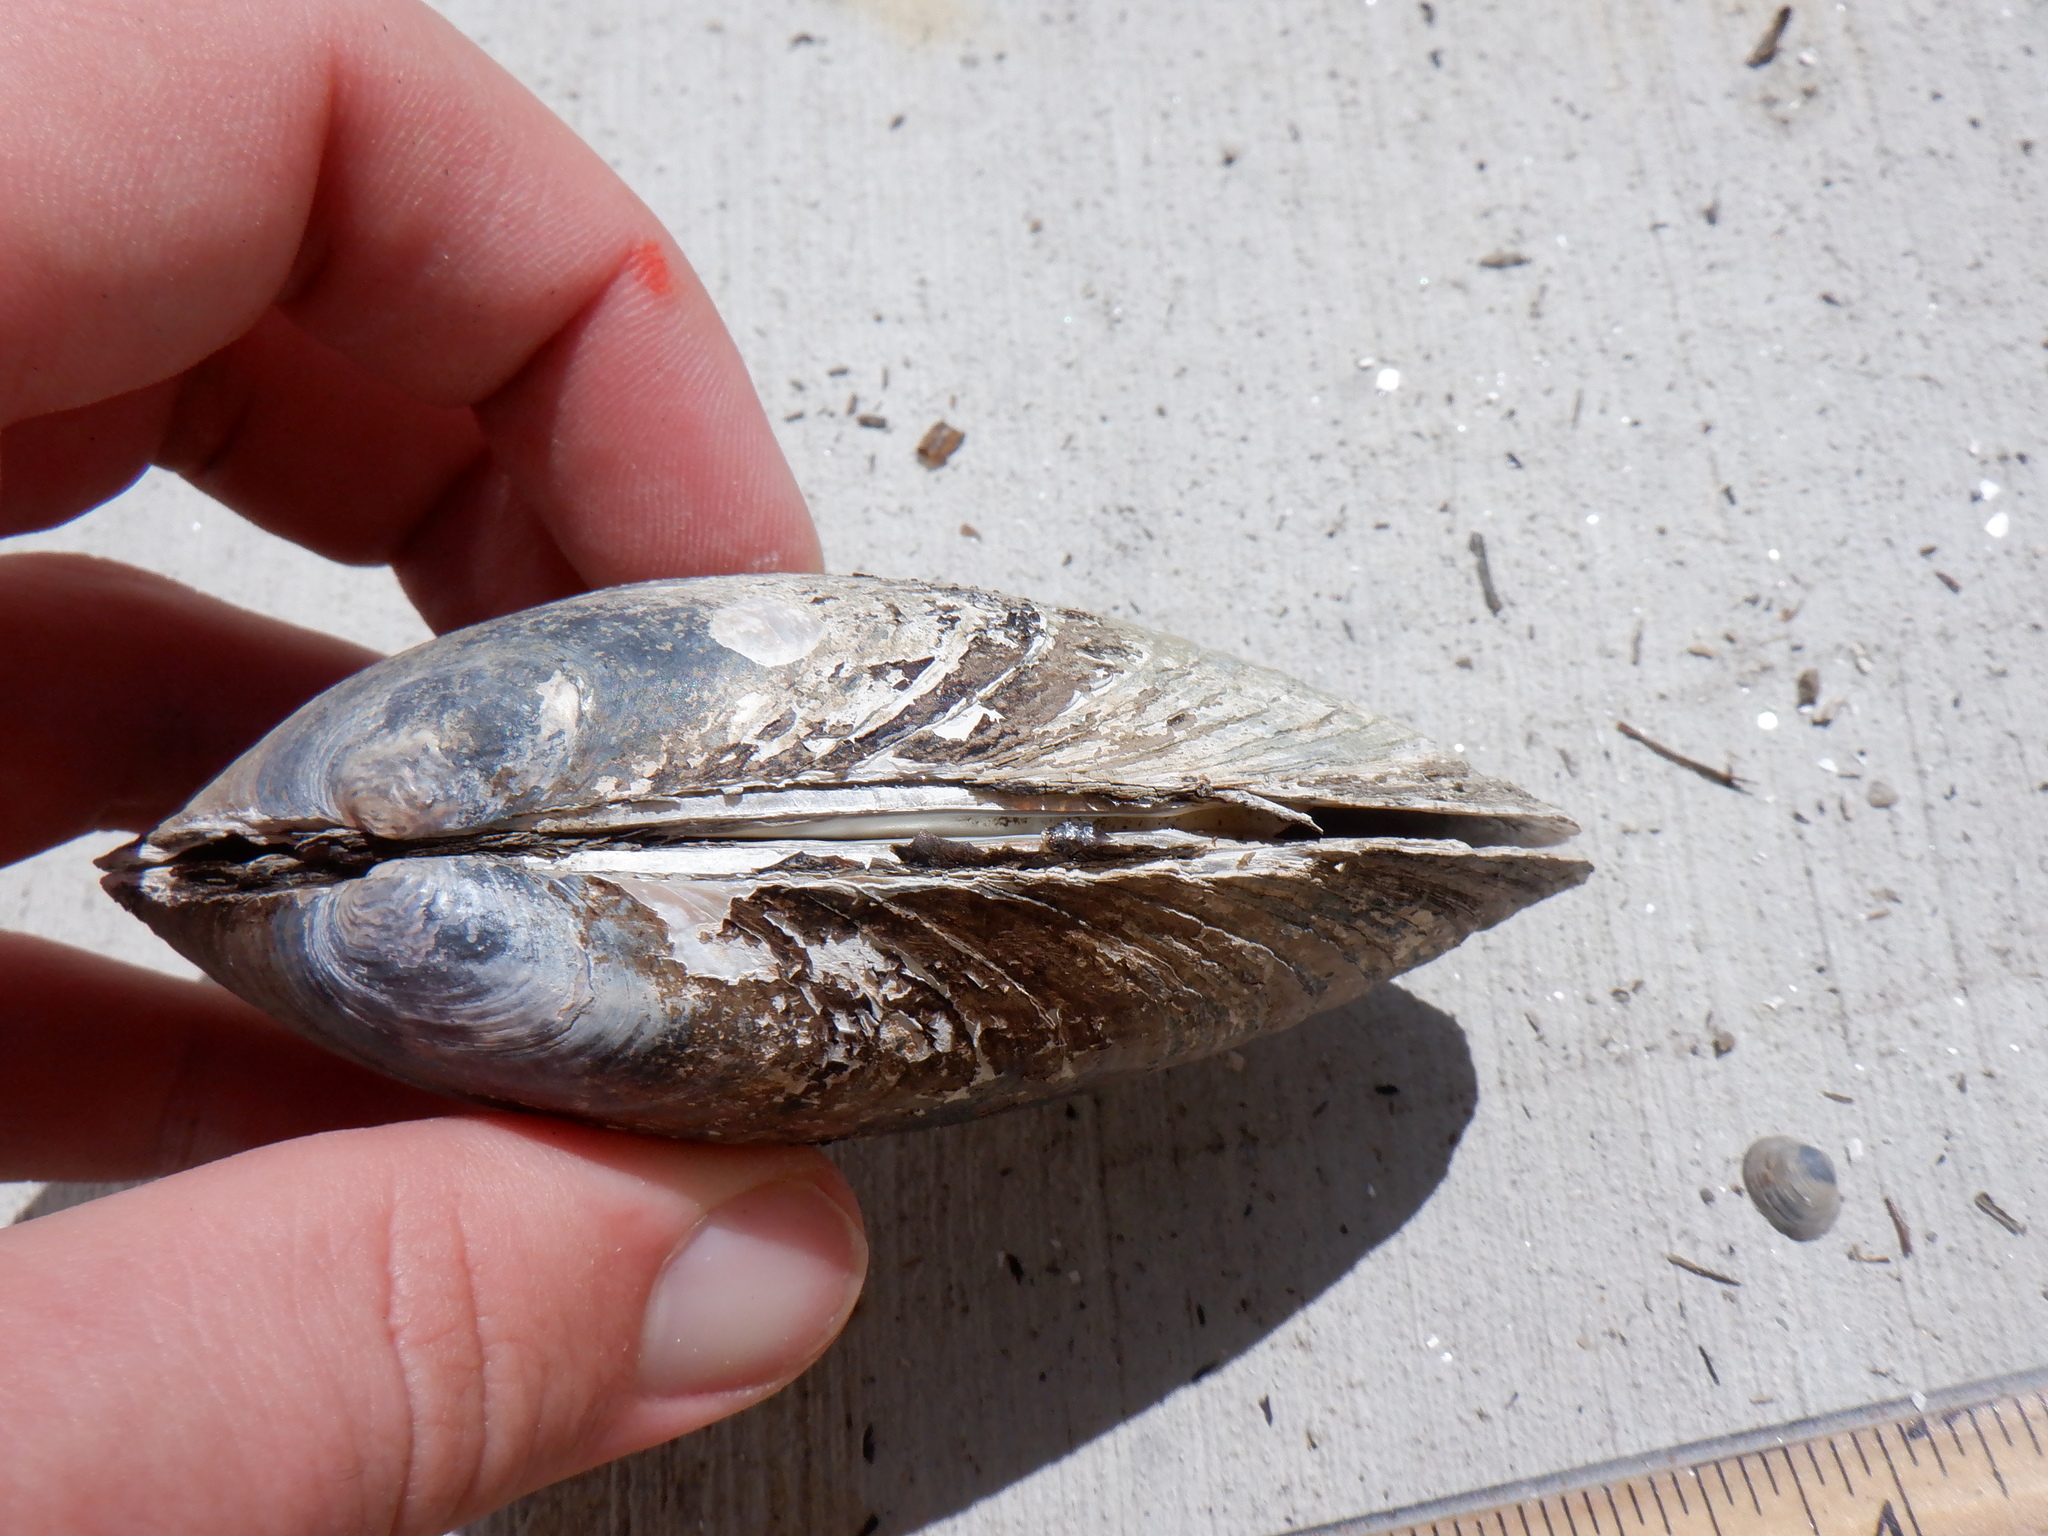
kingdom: Animalia
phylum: Mollusca
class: Bivalvia
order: Unionida
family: Unionidae
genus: Lampsilis
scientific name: Lampsilis siliquoidea
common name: Fatmucket
